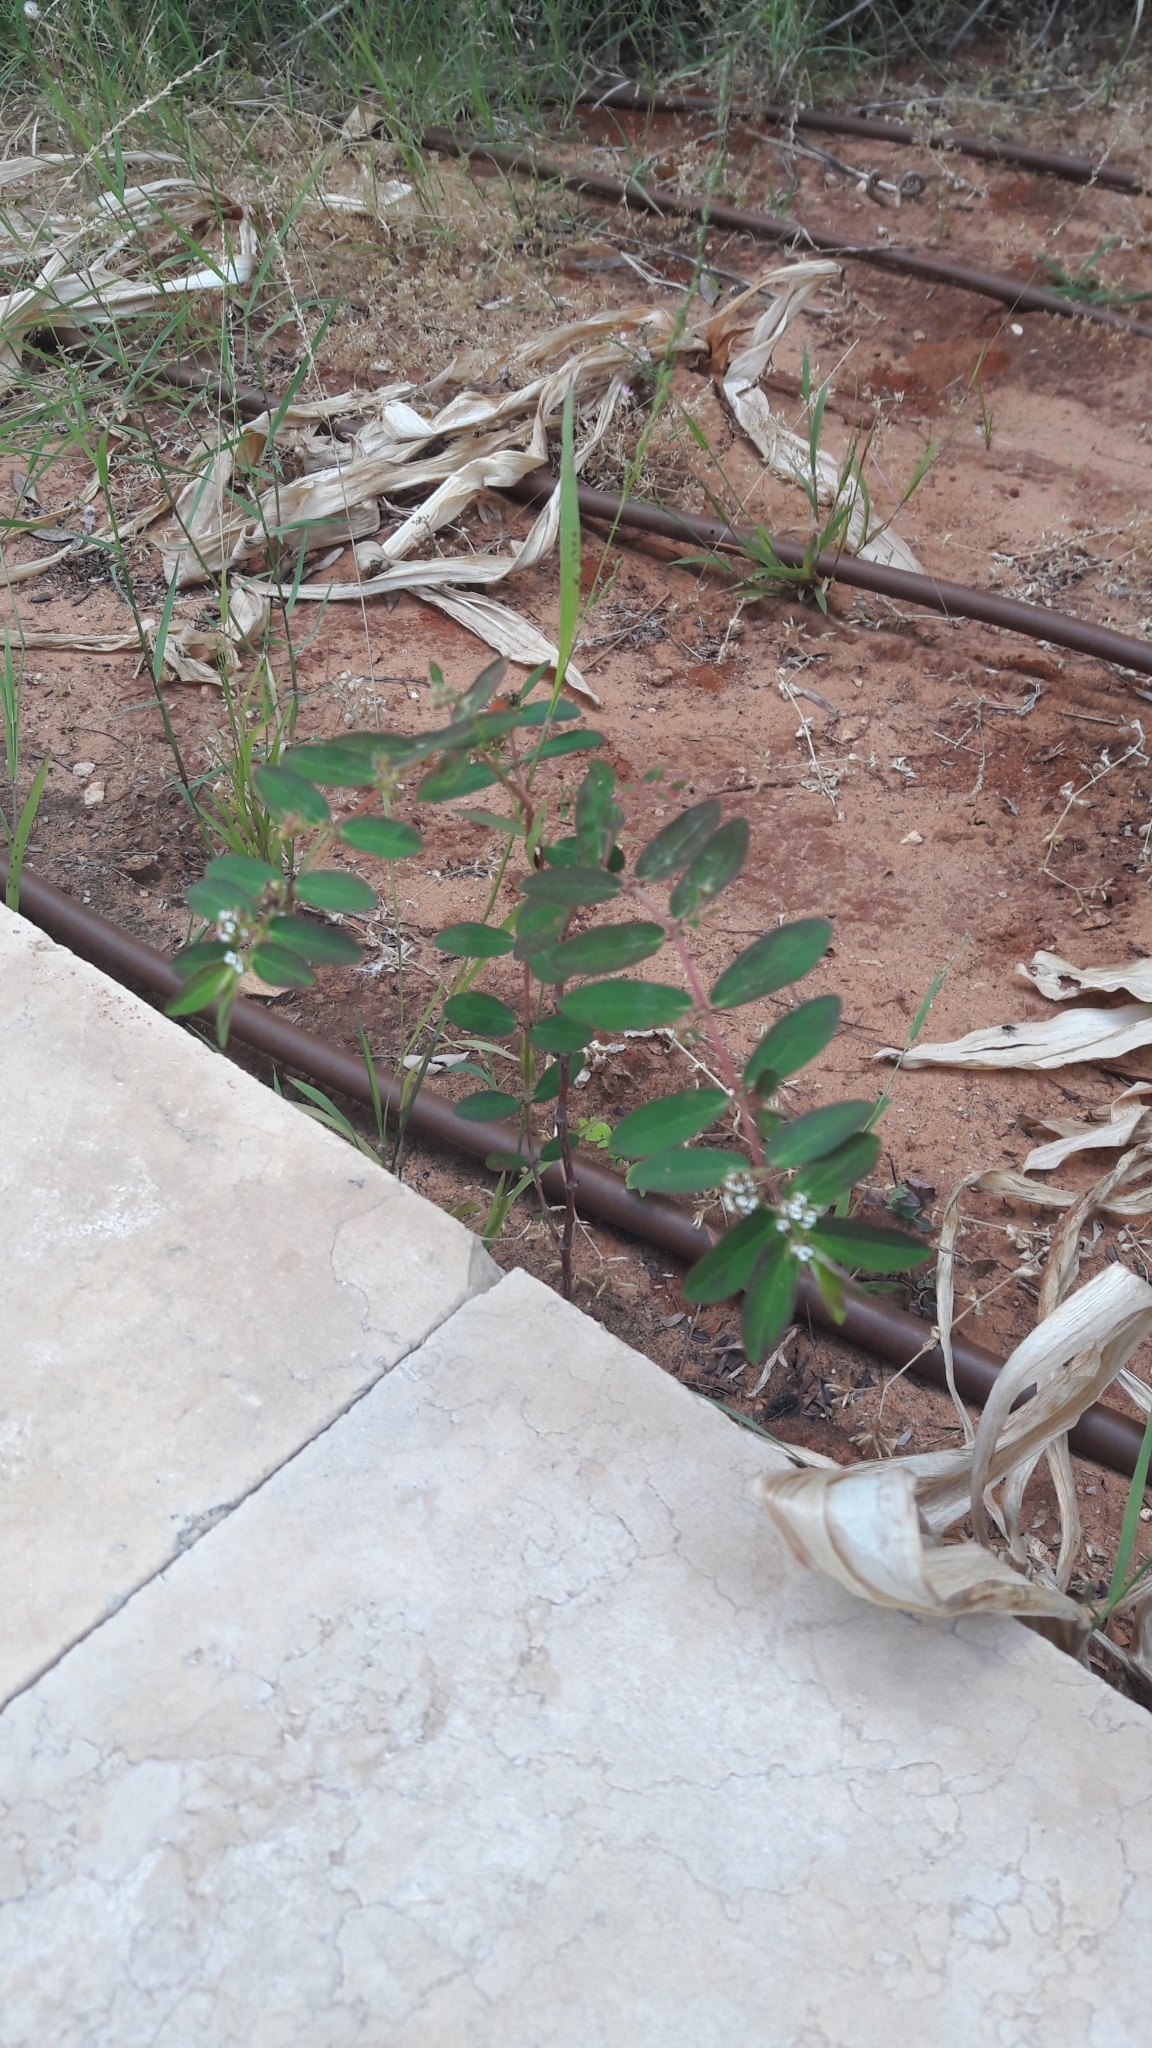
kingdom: Plantae
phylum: Tracheophyta
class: Magnoliopsida
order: Malpighiales
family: Euphorbiaceae
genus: Euphorbia
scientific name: Euphorbia hypericifolia
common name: Graceful sandmat
